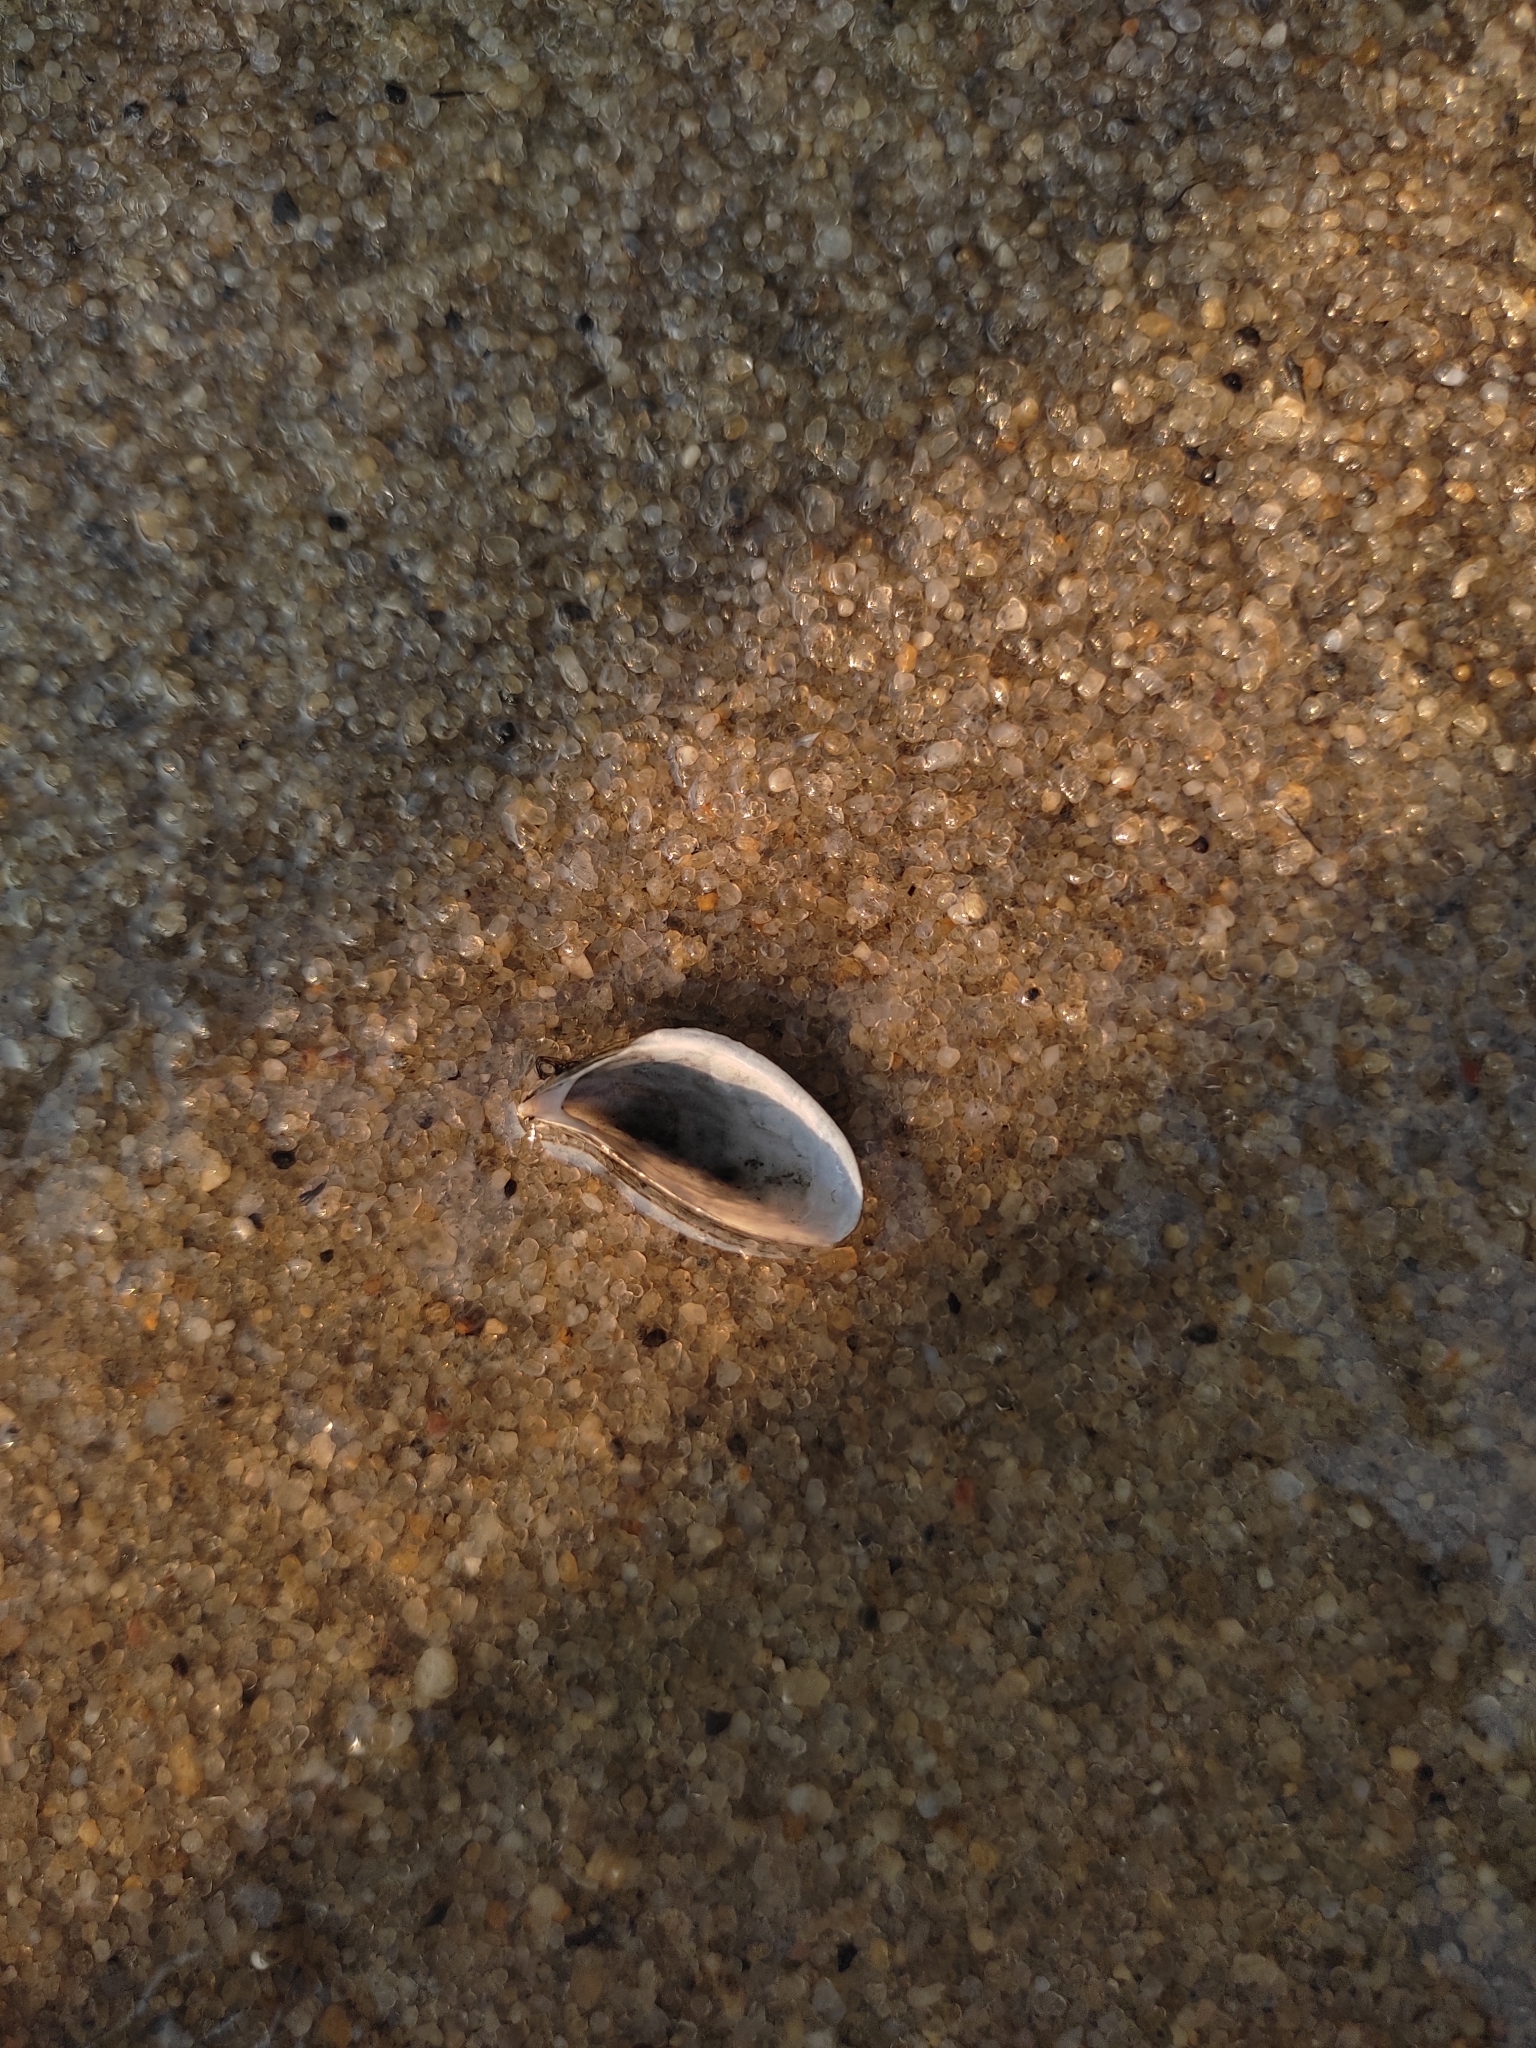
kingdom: Animalia
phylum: Mollusca
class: Bivalvia
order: Myida
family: Dreissenidae
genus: Dreissena
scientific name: Dreissena polymorpha
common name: Zebra mussel
